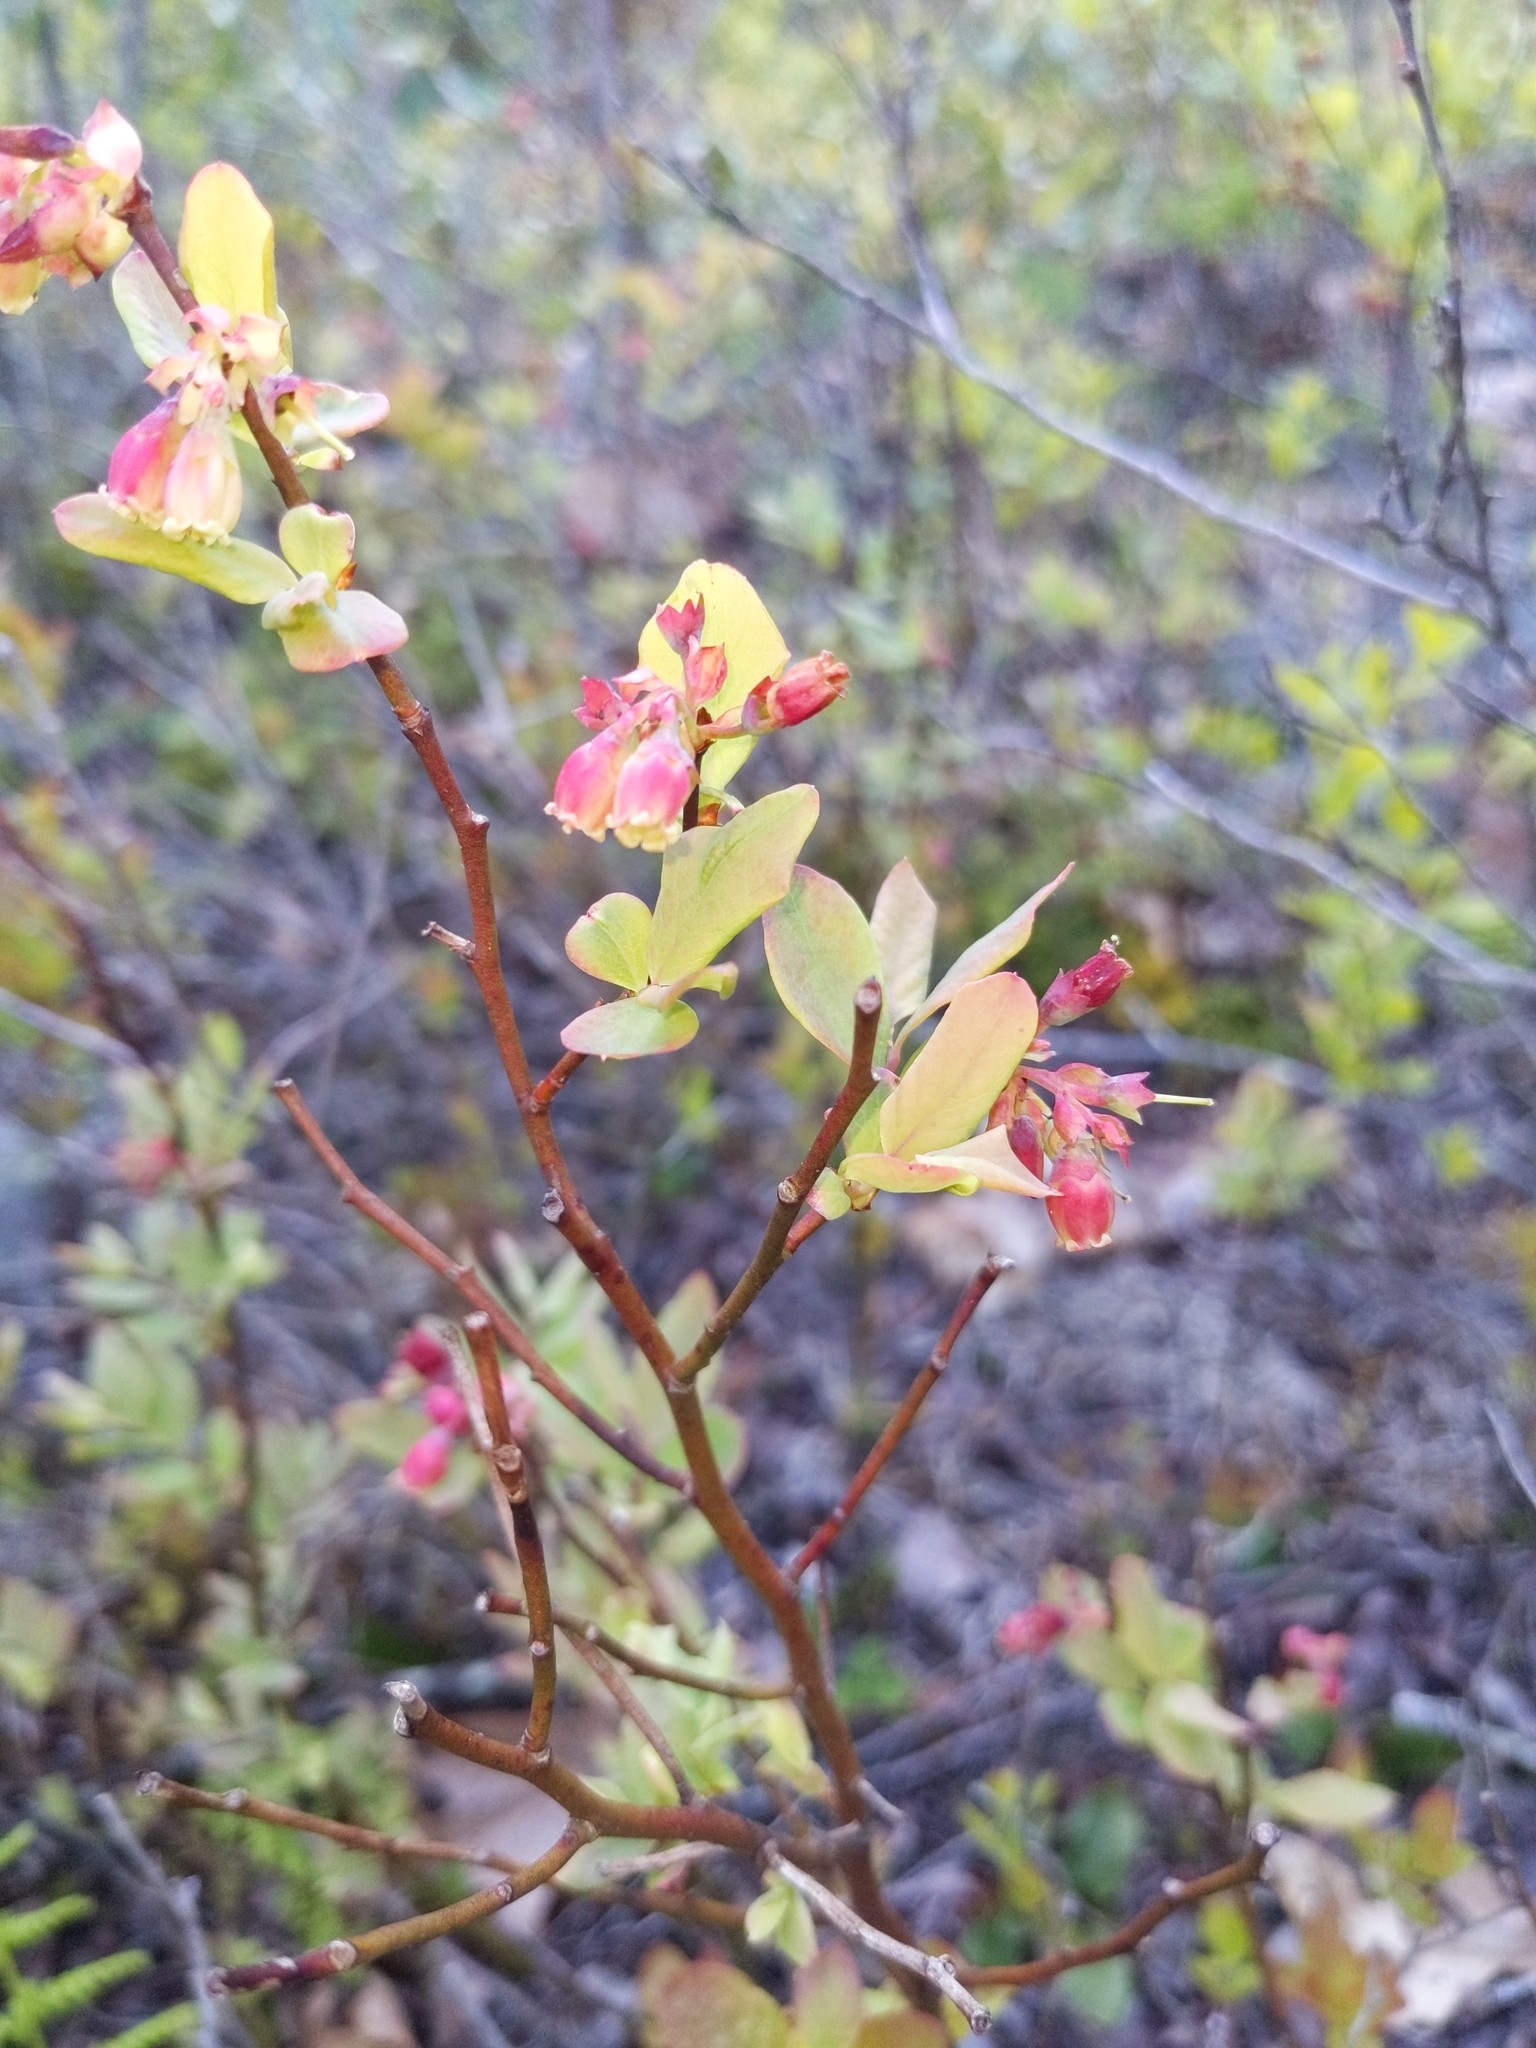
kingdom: Plantae
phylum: Tracheophyta
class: Magnoliopsida
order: Ericales
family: Ericaceae
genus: Gaylussacia
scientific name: Gaylussacia baccata
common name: Black huckleberry
